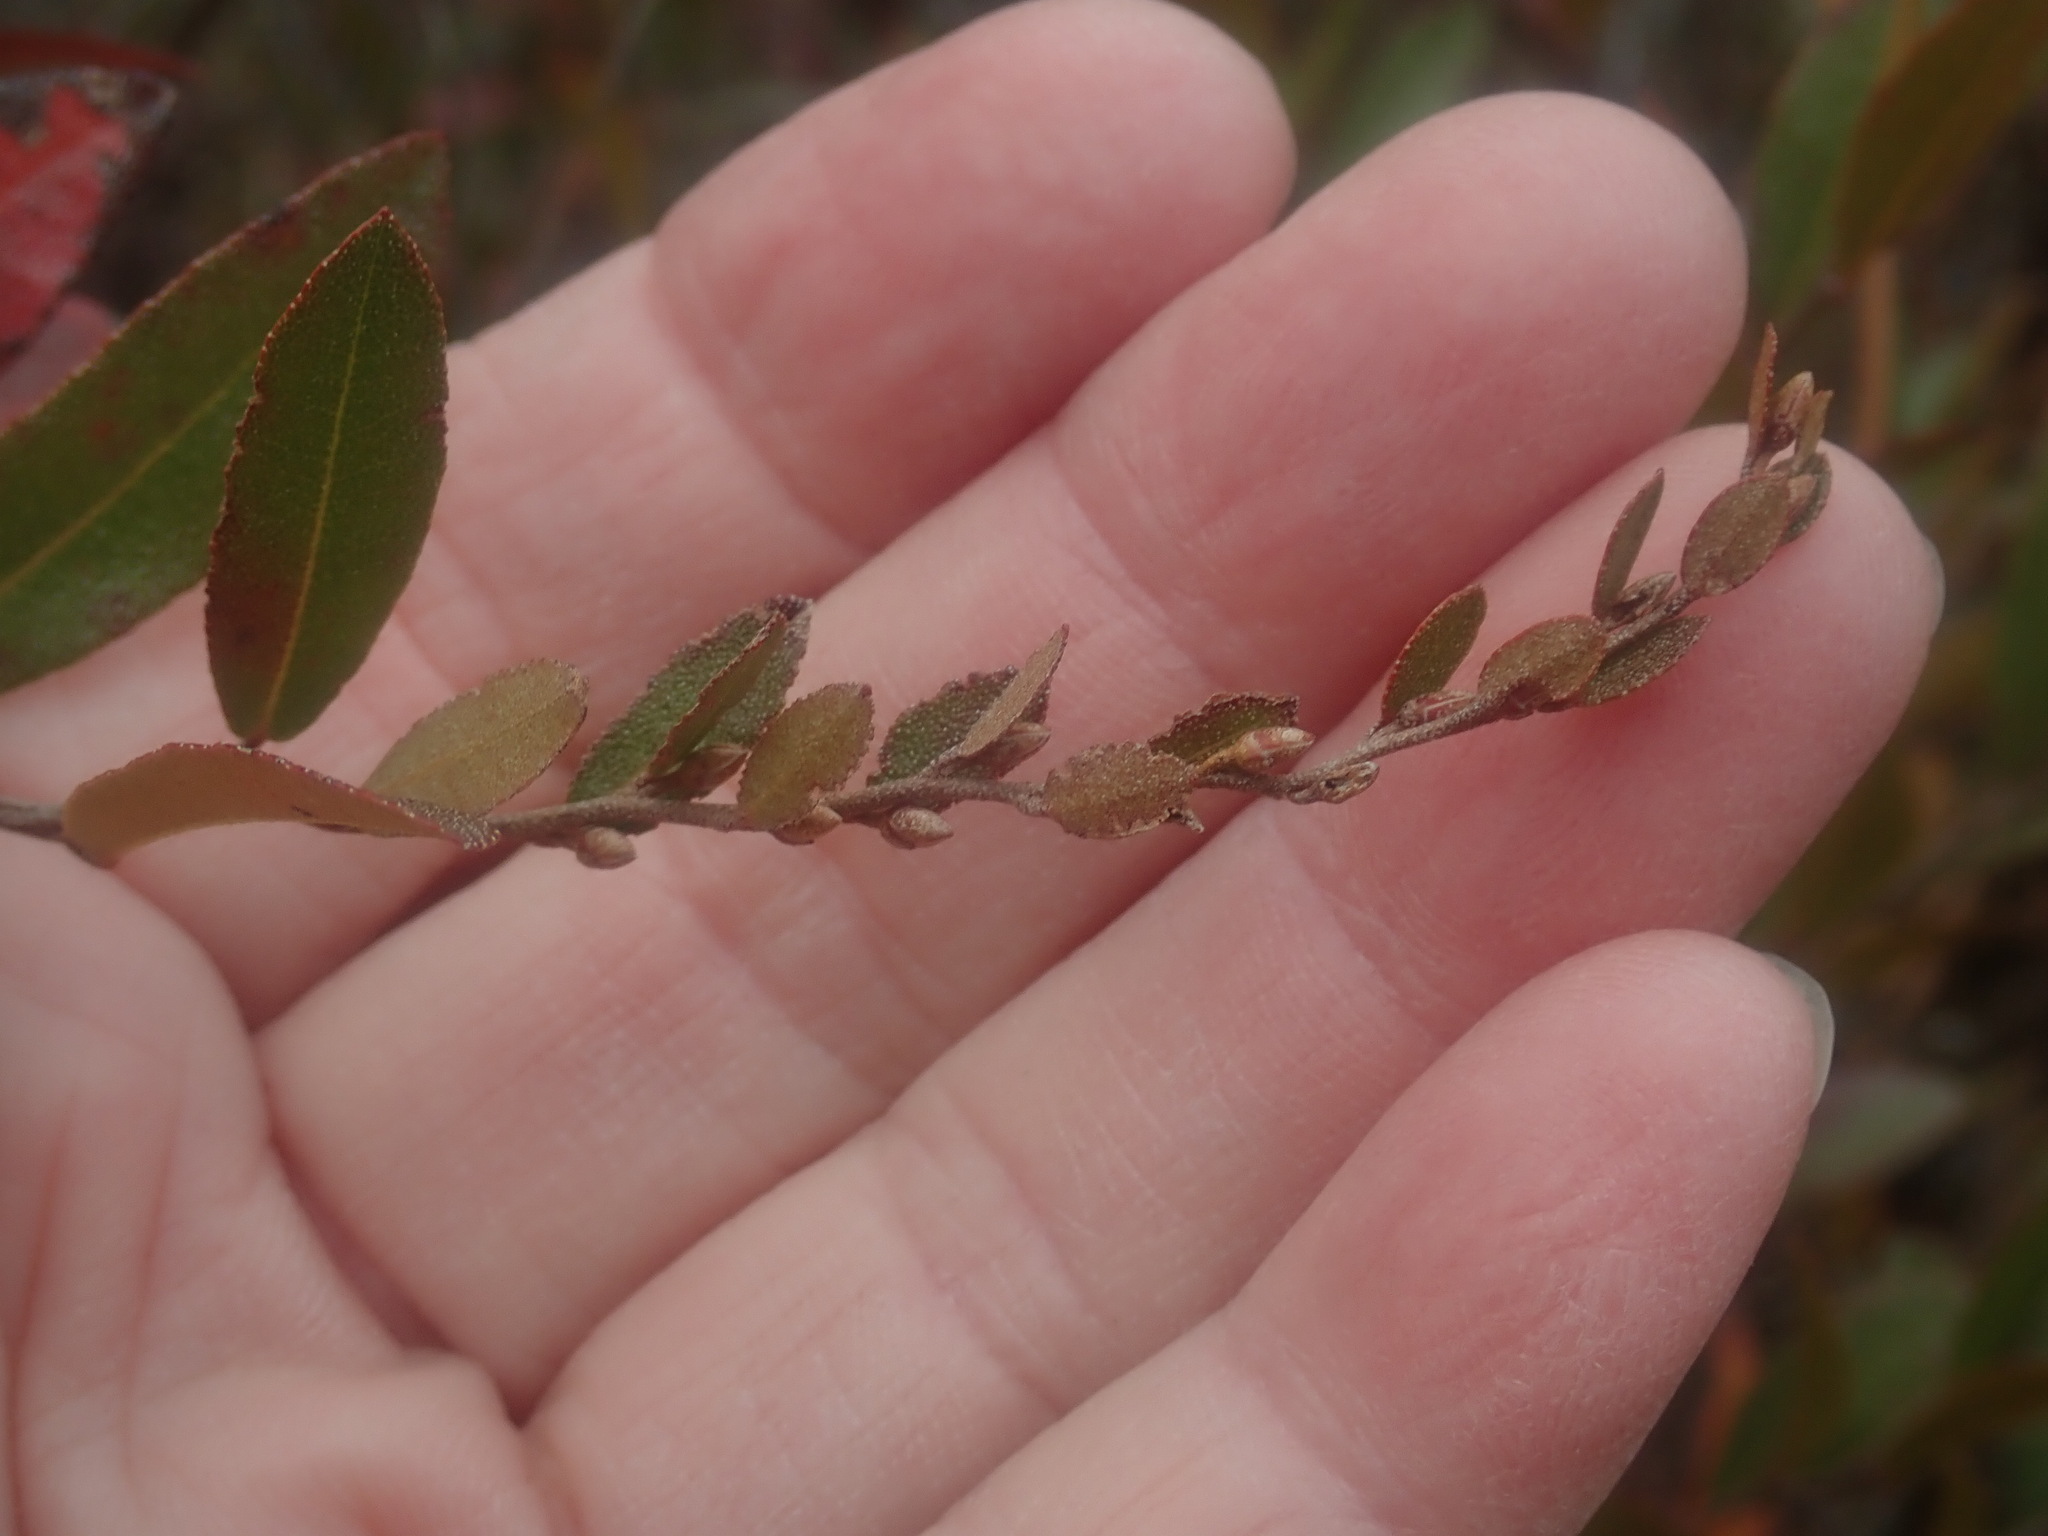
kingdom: Plantae
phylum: Tracheophyta
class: Magnoliopsida
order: Ericales
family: Ericaceae
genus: Chamaedaphne
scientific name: Chamaedaphne calyculata
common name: Leatherleaf
